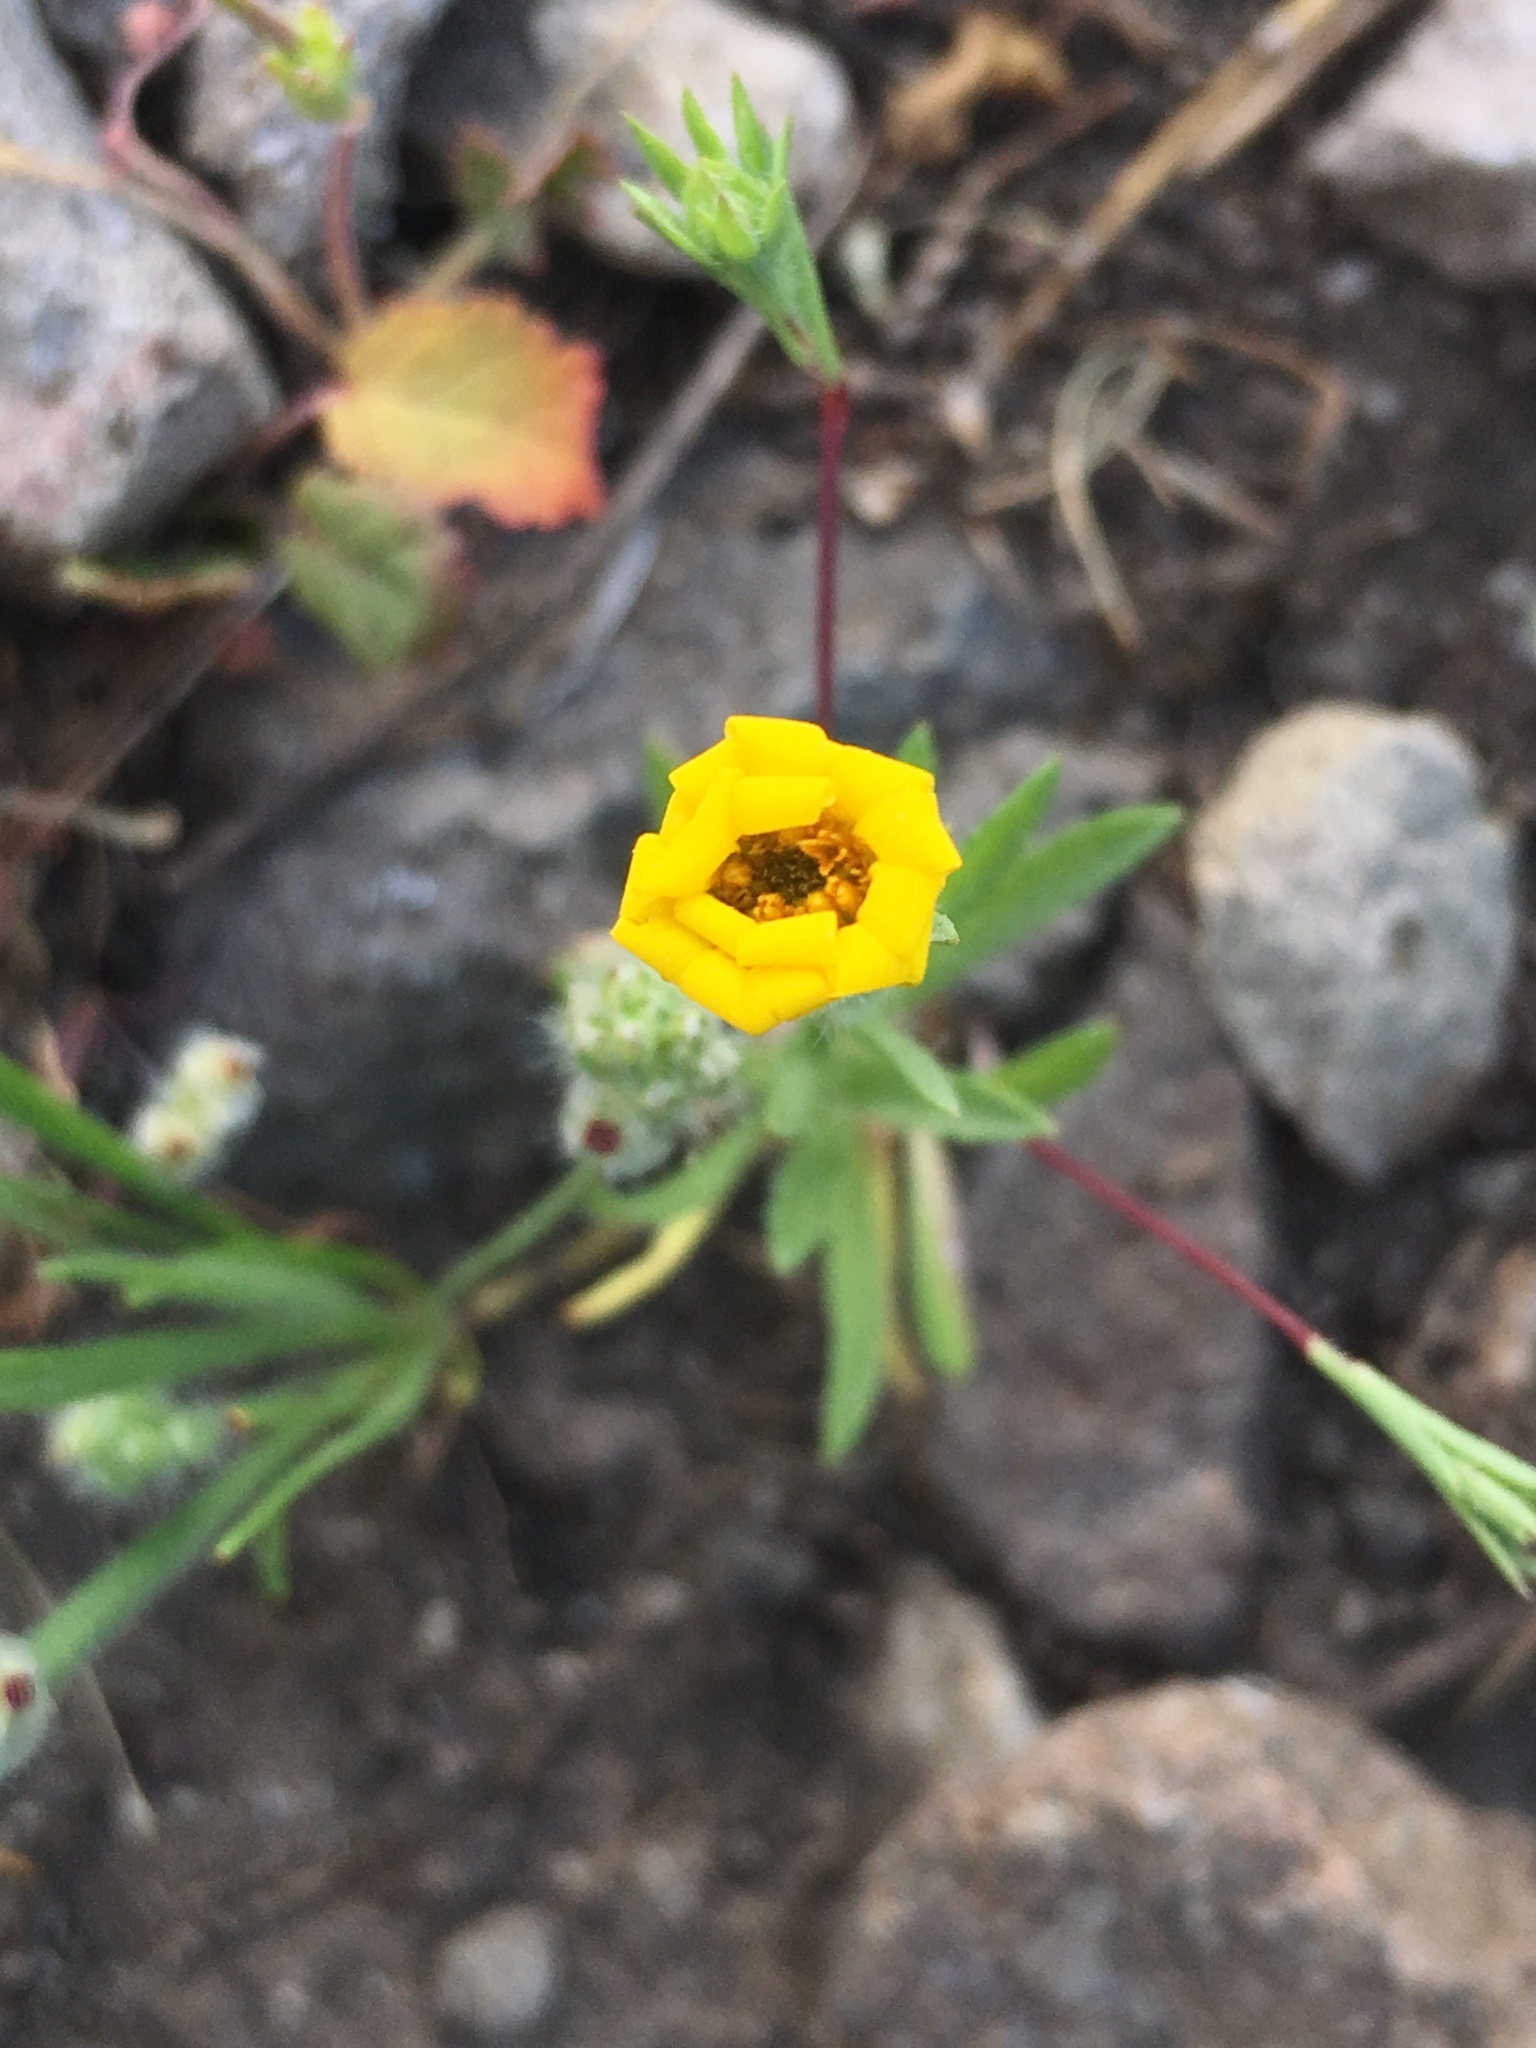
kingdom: Plantae
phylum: Tracheophyta
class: Magnoliopsida
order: Asterales
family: Asteraceae
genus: Pentachaeta
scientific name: Pentachaeta lyonii
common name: Lyon's pentachaeta
